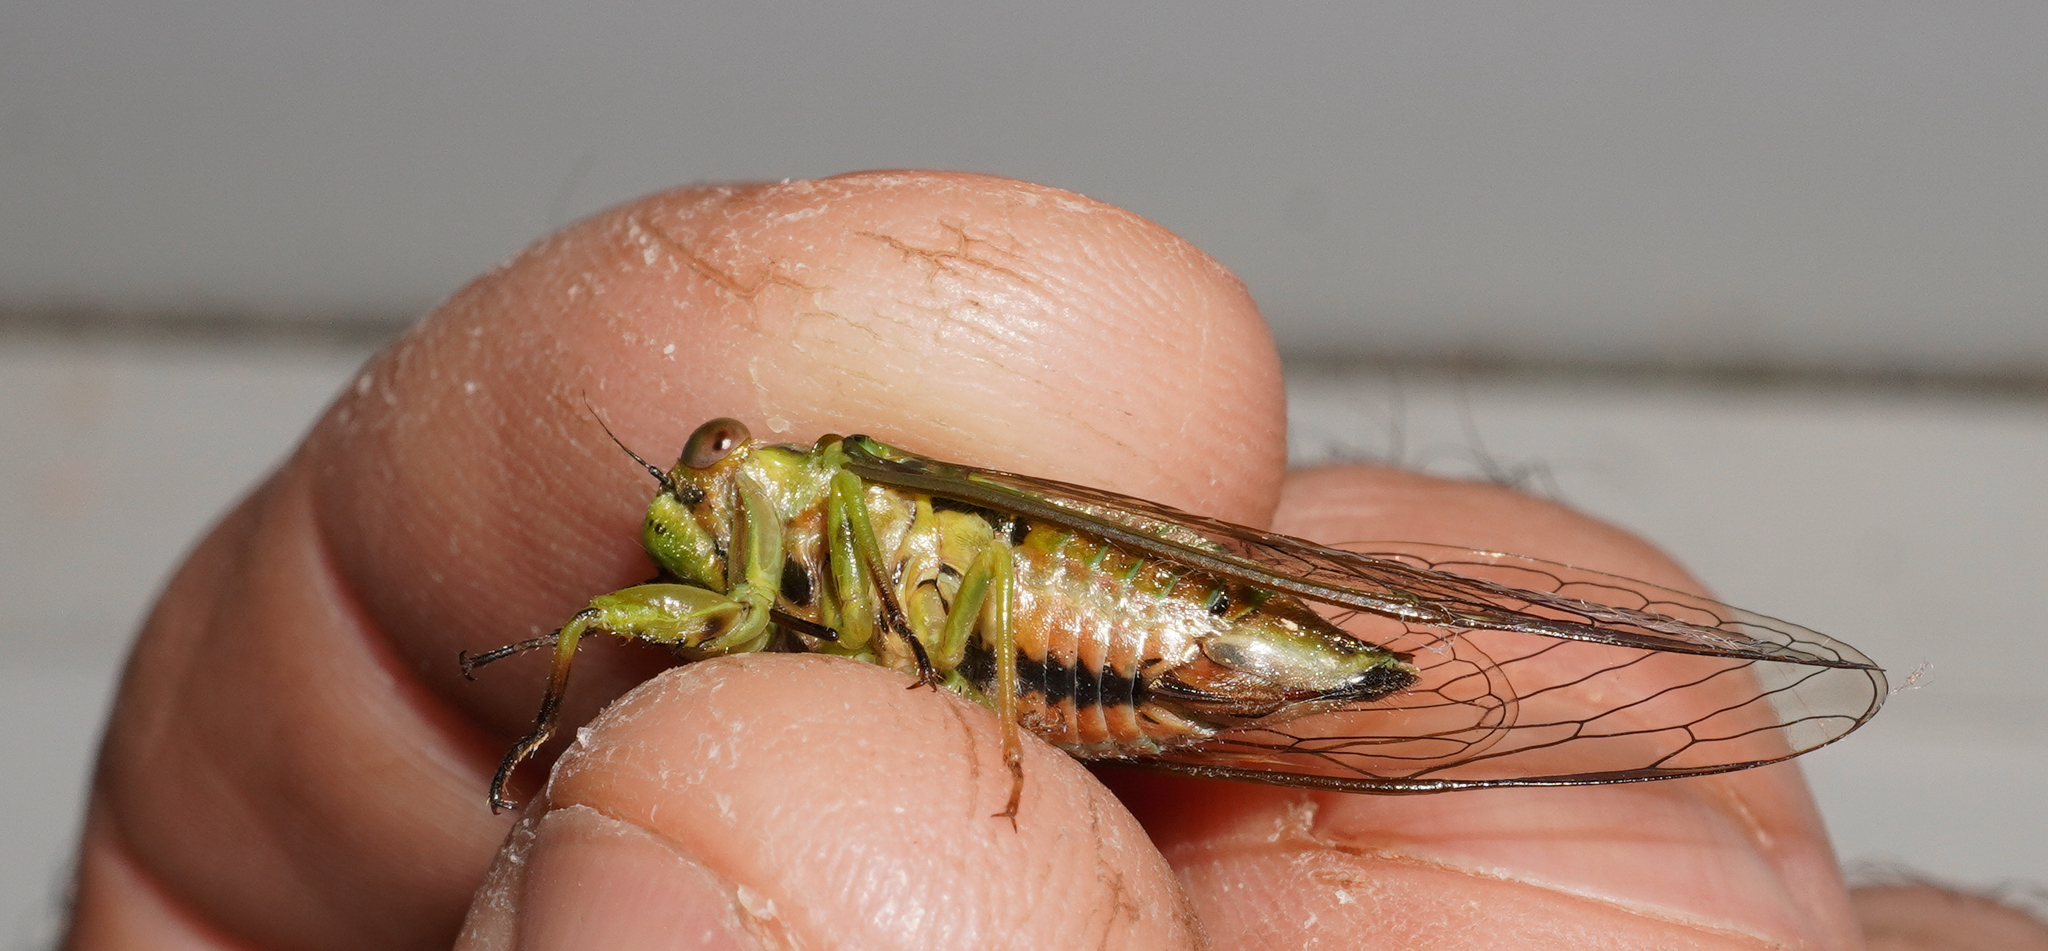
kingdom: Animalia
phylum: Arthropoda
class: Insecta
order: Hemiptera
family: Cicadidae
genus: Kikihia
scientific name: Kikihia scutellaris
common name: Lesser bronze cicada
